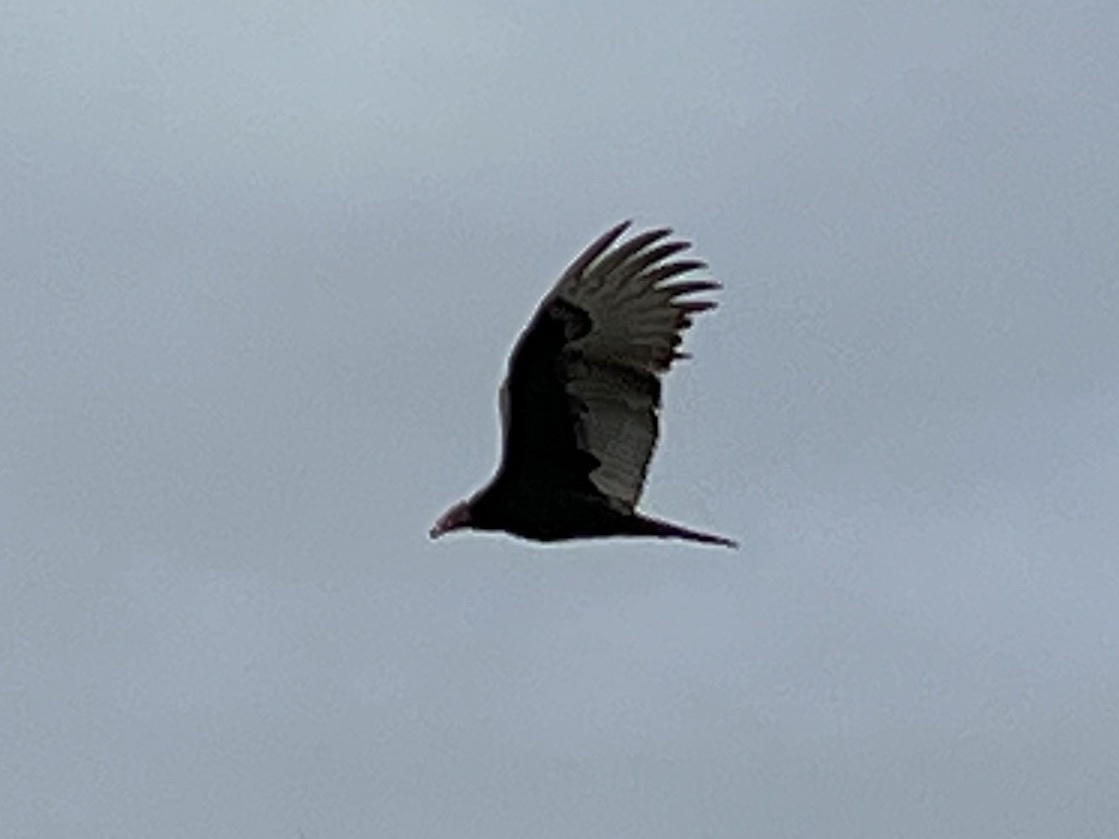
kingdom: Animalia
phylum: Chordata
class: Aves
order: Accipitriformes
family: Cathartidae
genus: Cathartes
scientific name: Cathartes aura
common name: Turkey vulture
